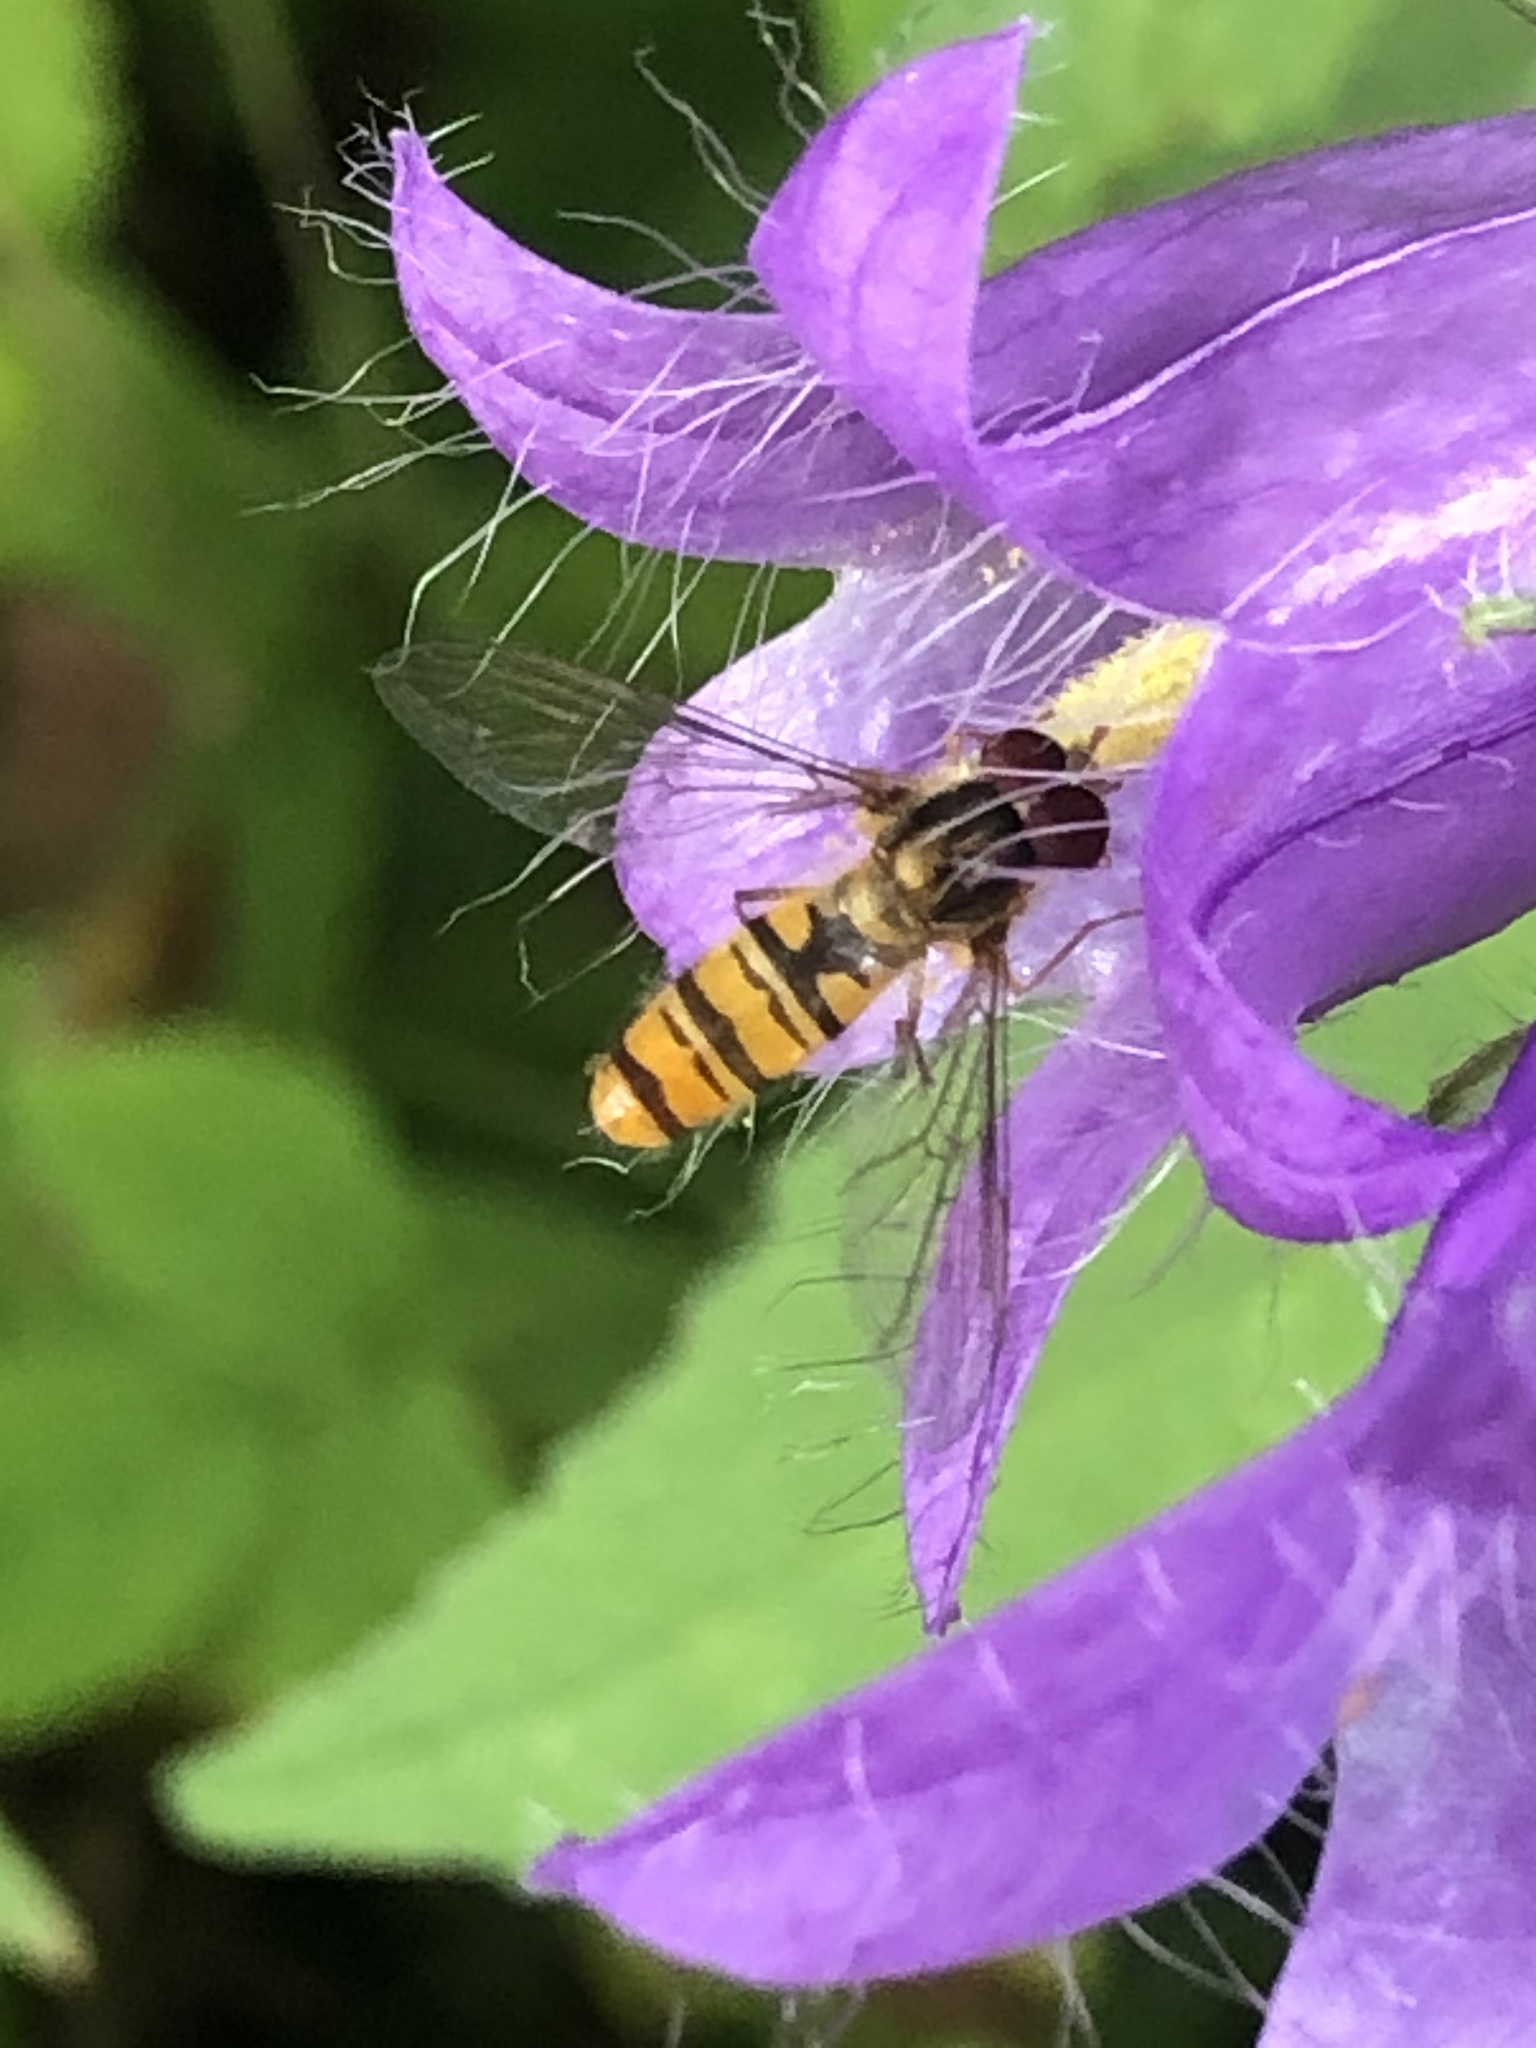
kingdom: Animalia
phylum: Arthropoda
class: Insecta
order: Diptera
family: Syrphidae
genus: Episyrphus
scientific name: Episyrphus balteatus
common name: Marmalade hoverfly
